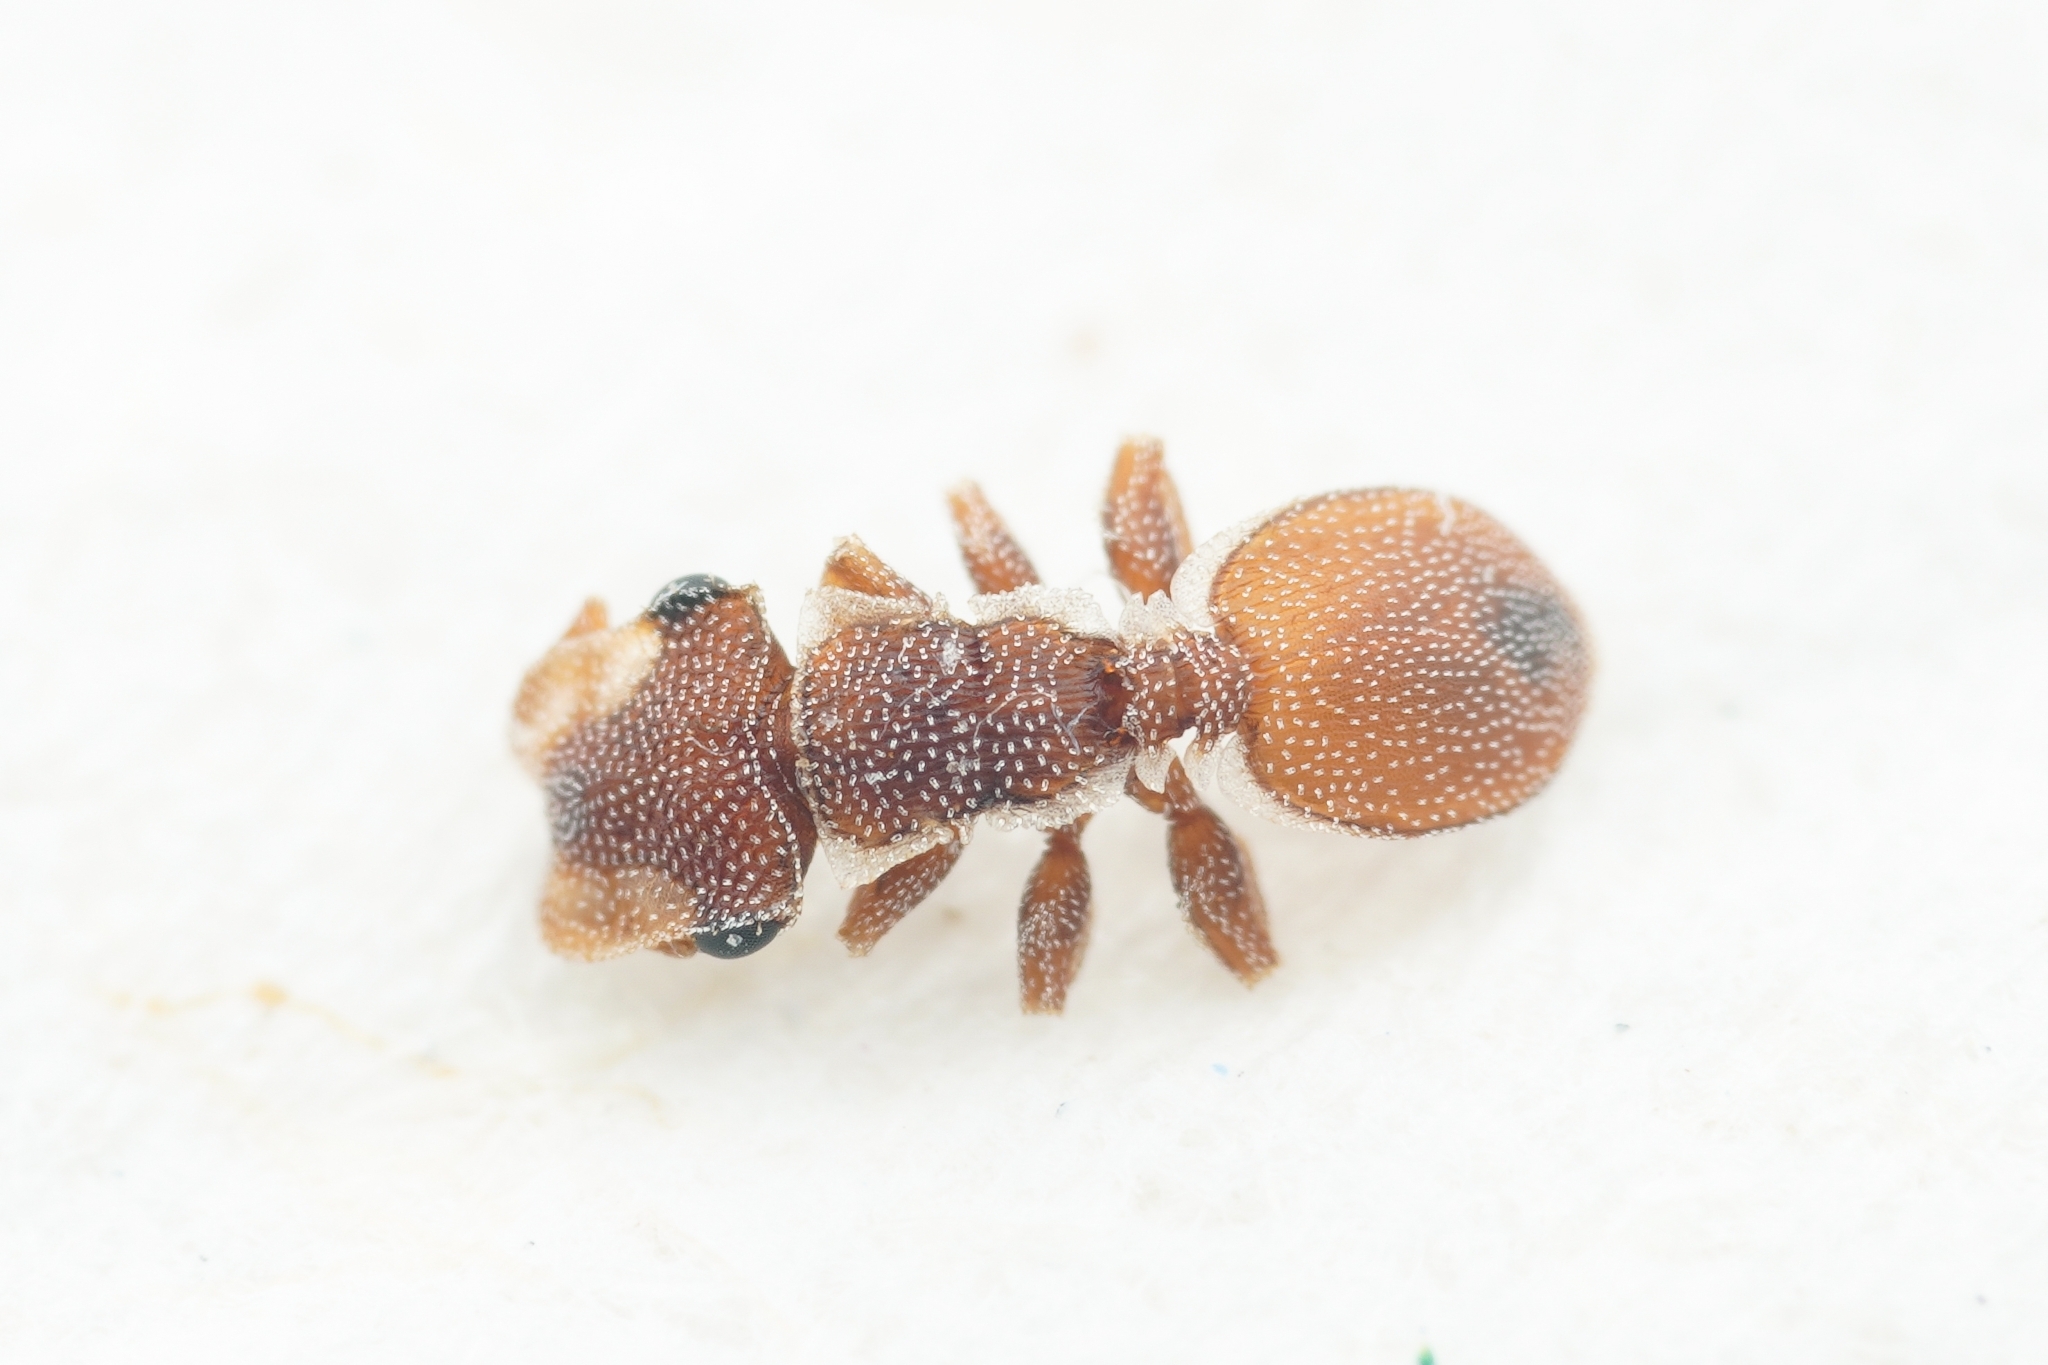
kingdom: Animalia
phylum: Arthropoda
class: Insecta
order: Hymenoptera
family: Formicidae
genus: Cephalotes
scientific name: Cephalotes grandinosus
